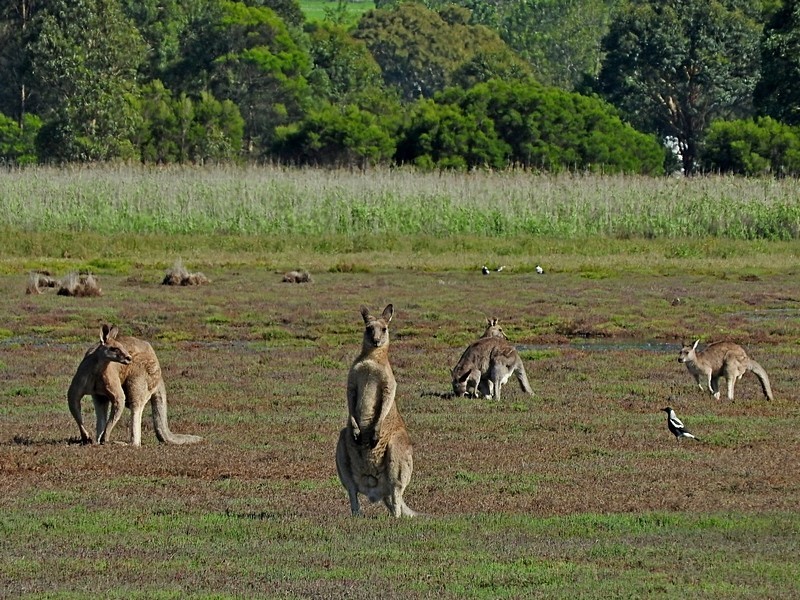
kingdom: Animalia
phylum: Chordata
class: Mammalia
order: Diprotodontia
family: Macropodidae
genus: Macropus
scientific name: Macropus giganteus
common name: Eastern grey kangaroo
